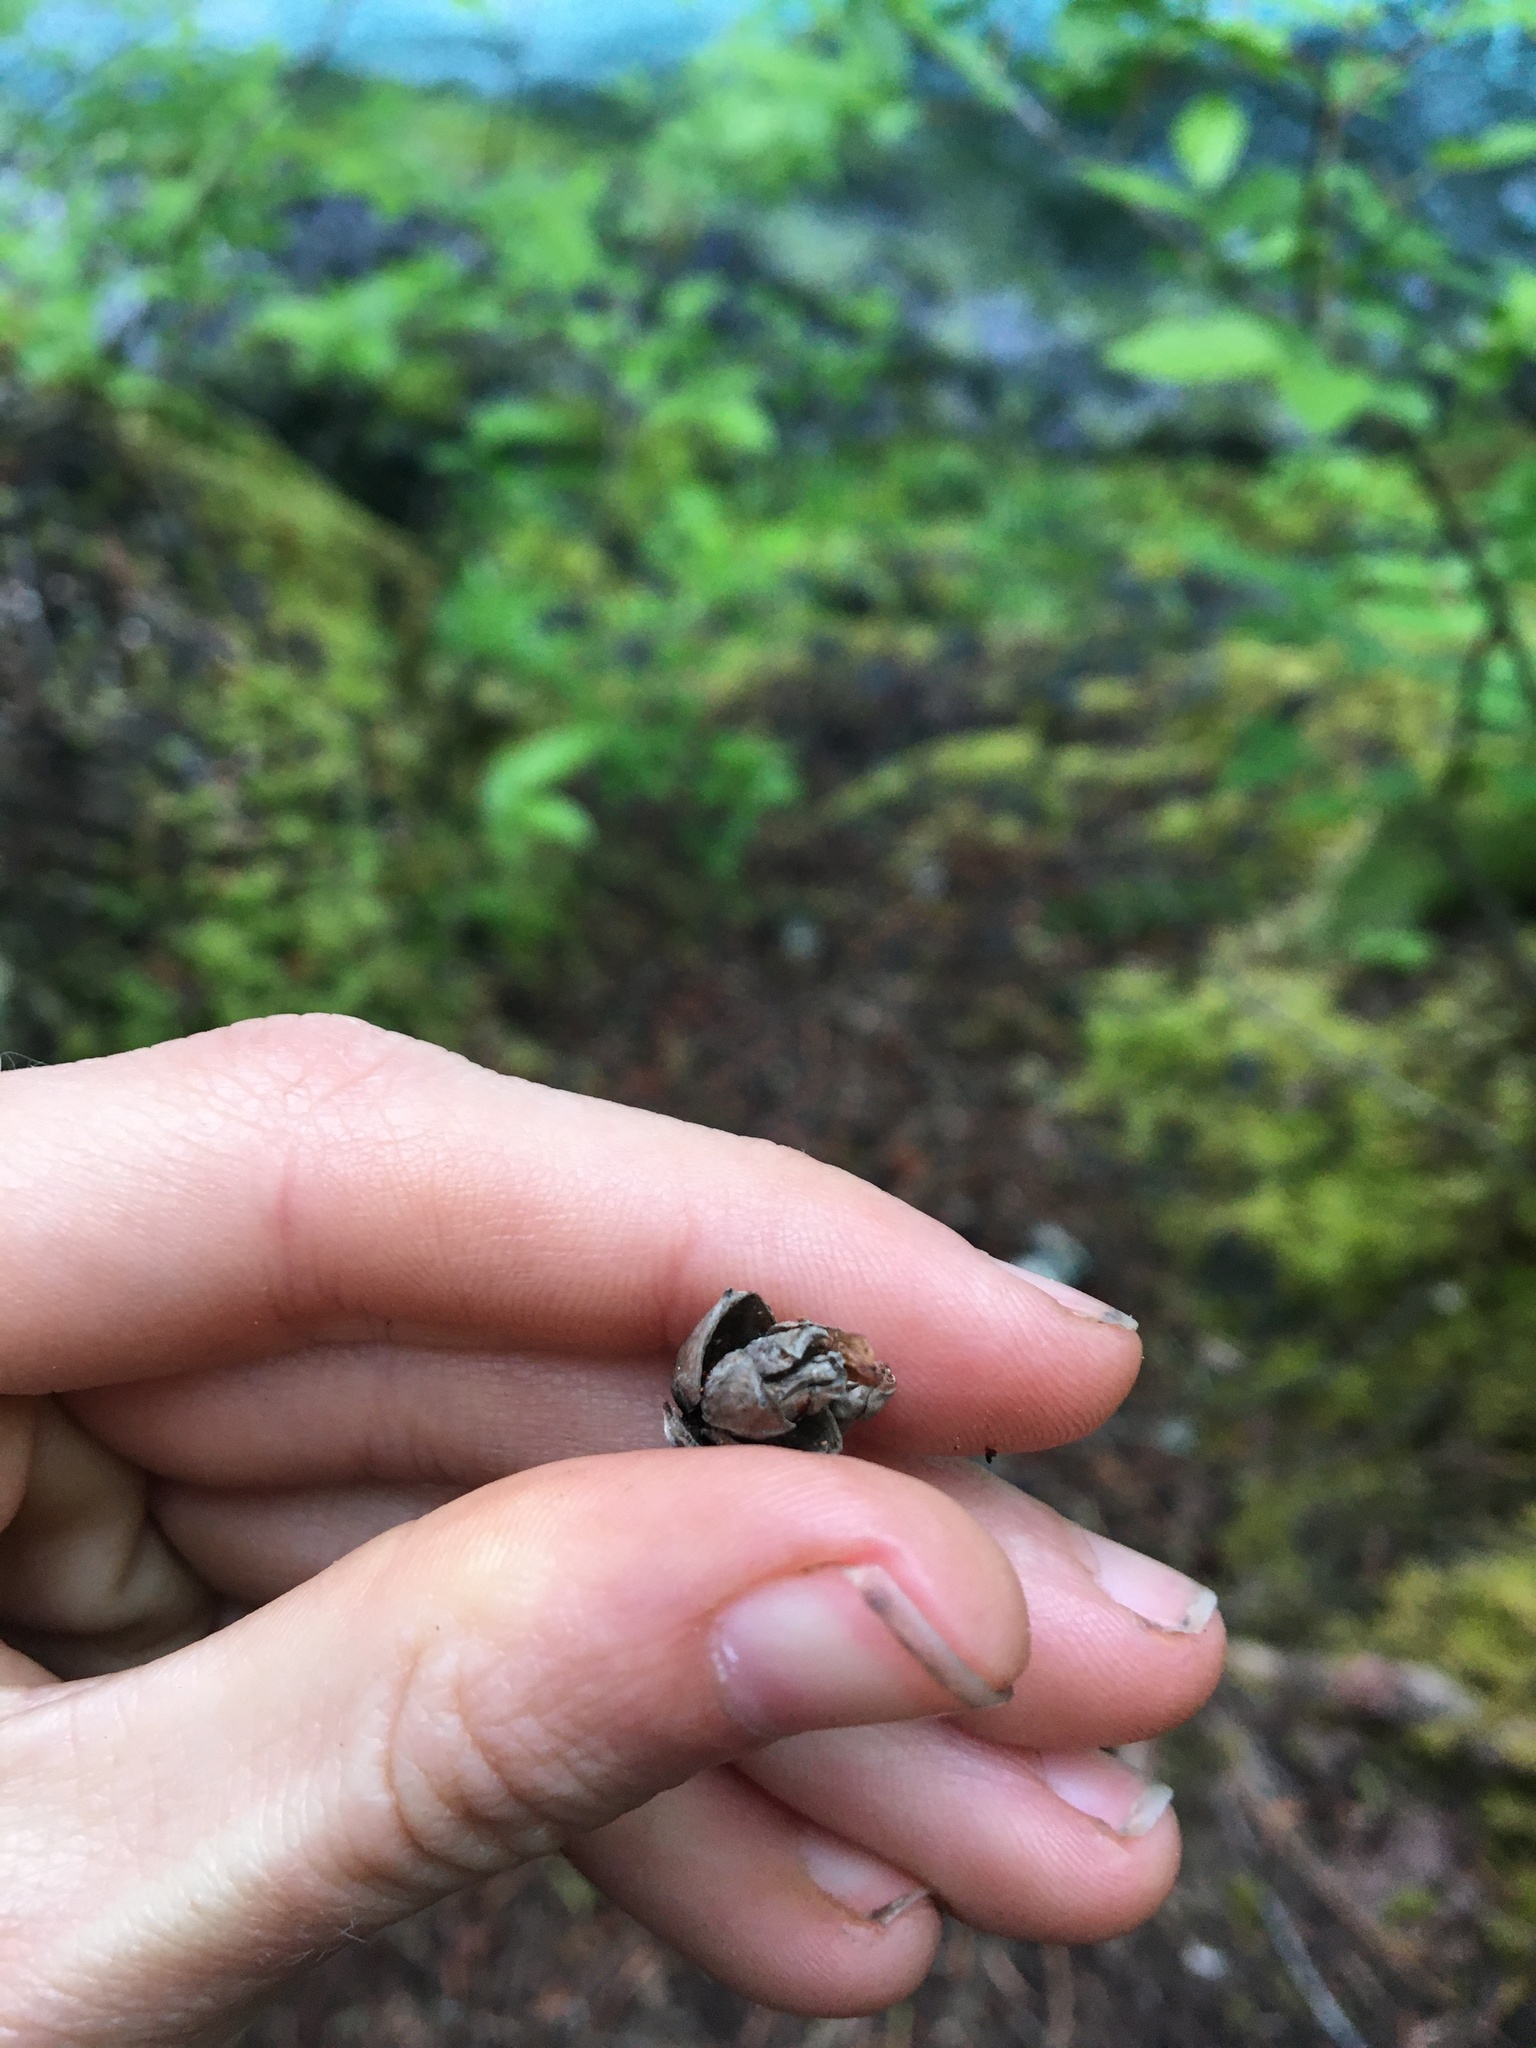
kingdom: Plantae
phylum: Tracheophyta
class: Pinopsida
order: Pinales
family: Cupressaceae
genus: Thuja
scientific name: Thuja plicata
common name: Western red-cedar
